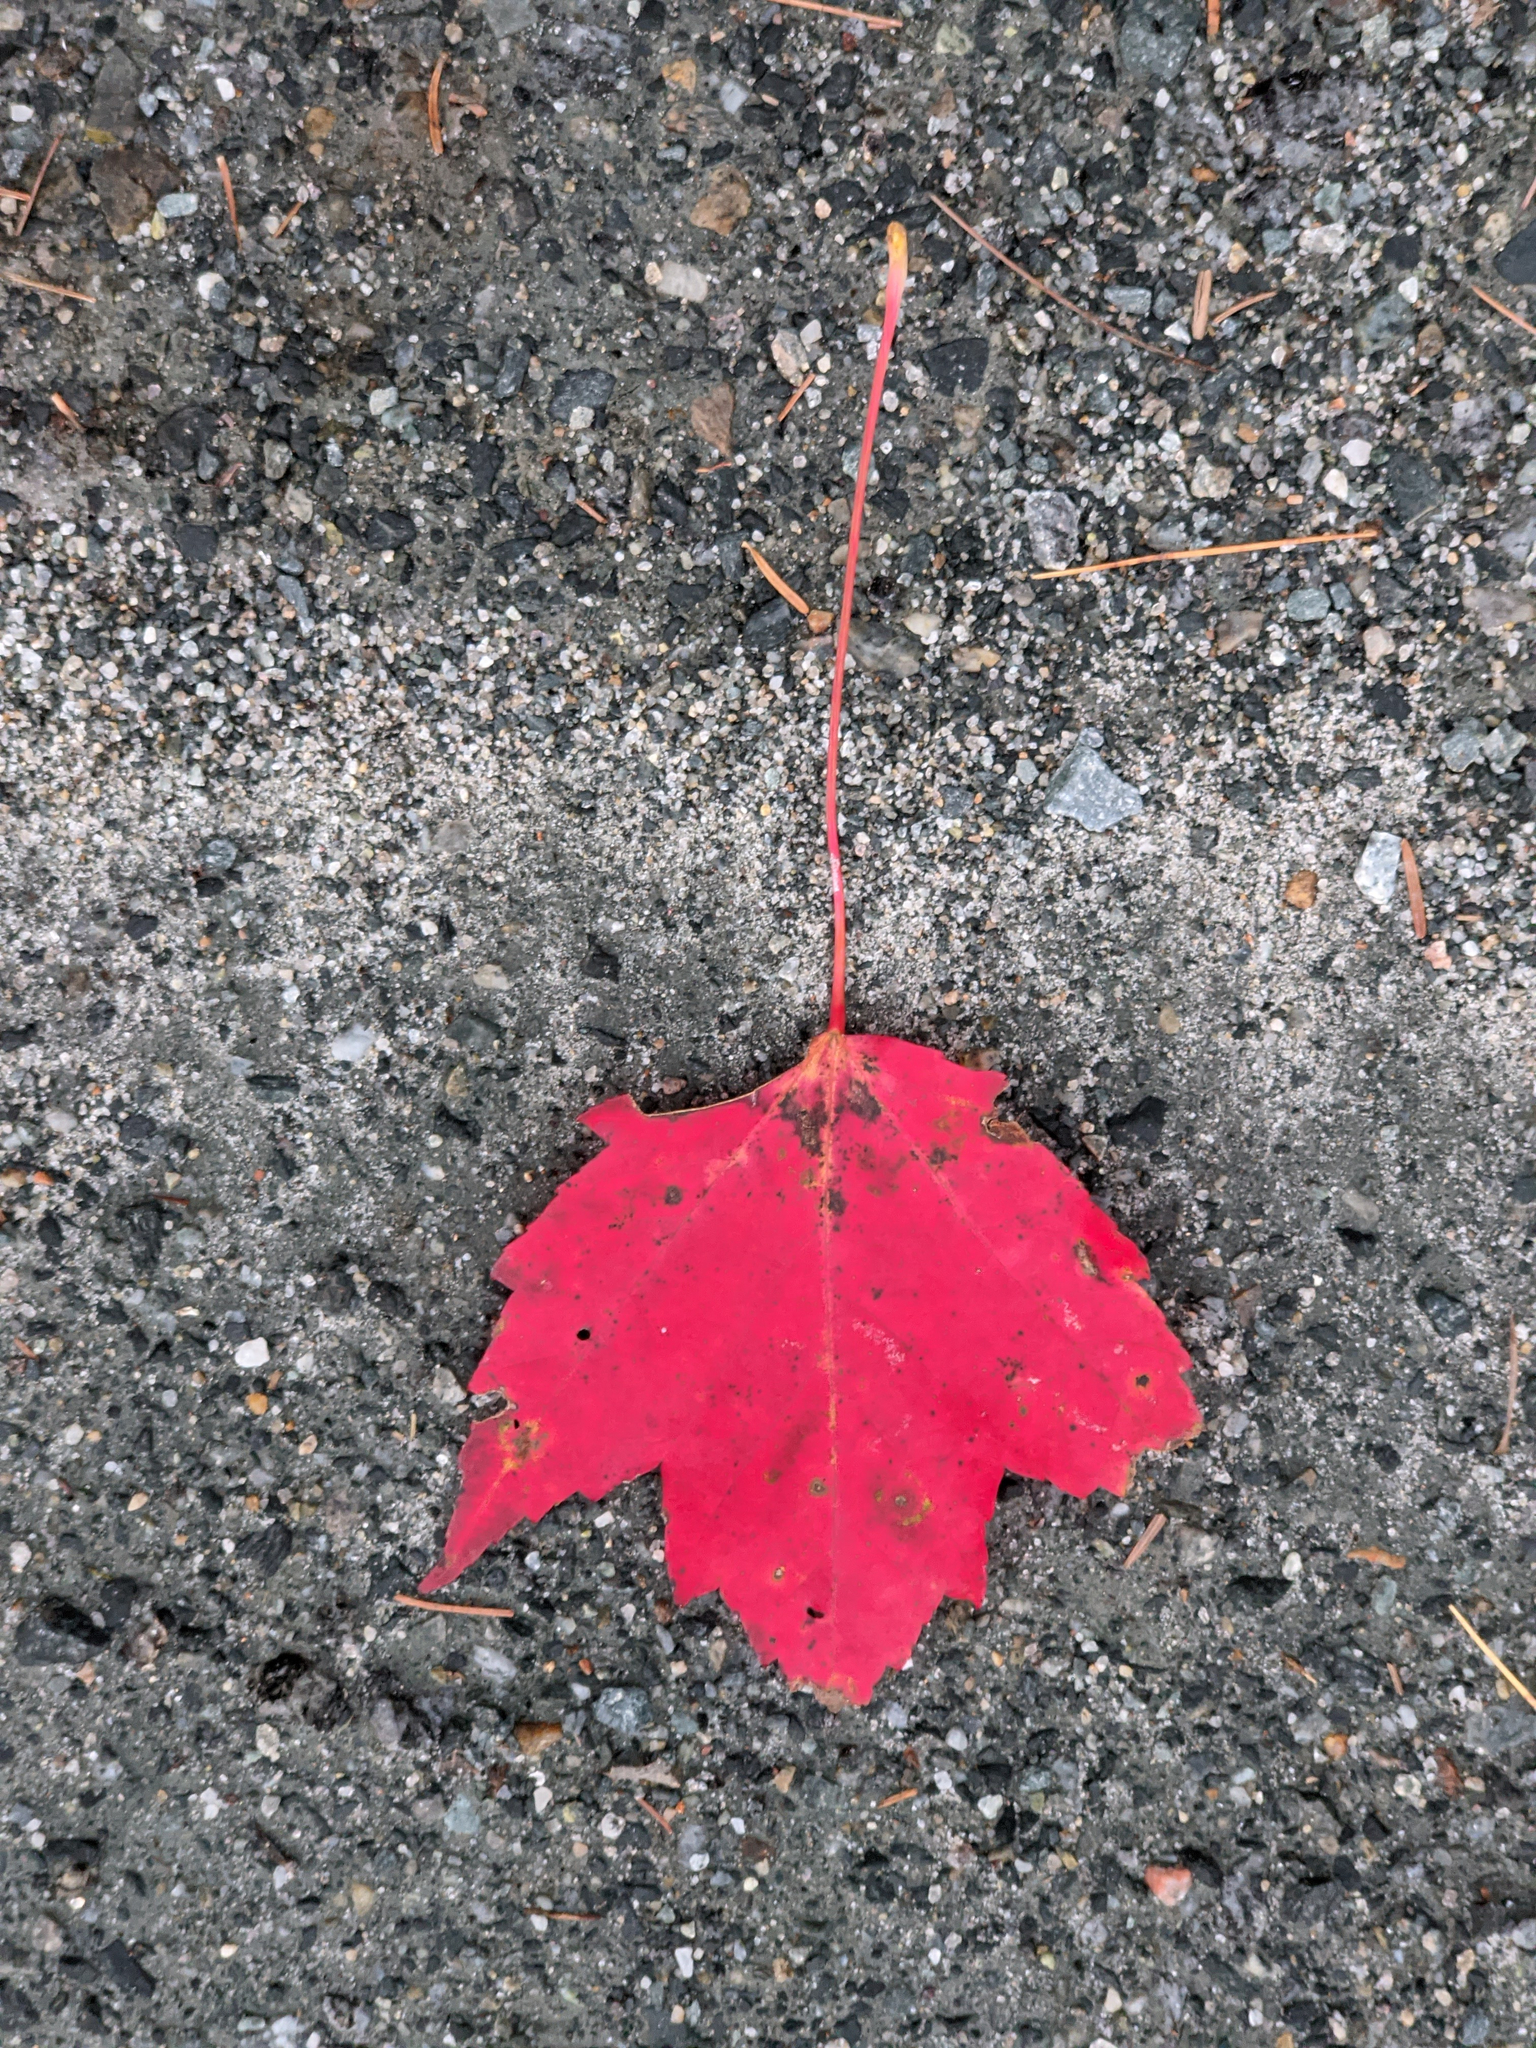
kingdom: Plantae
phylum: Tracheophyta
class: Magnoliopsida
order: Sapindales
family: Sapindaceae
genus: Acer
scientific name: Acer rubrum
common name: Red maple
